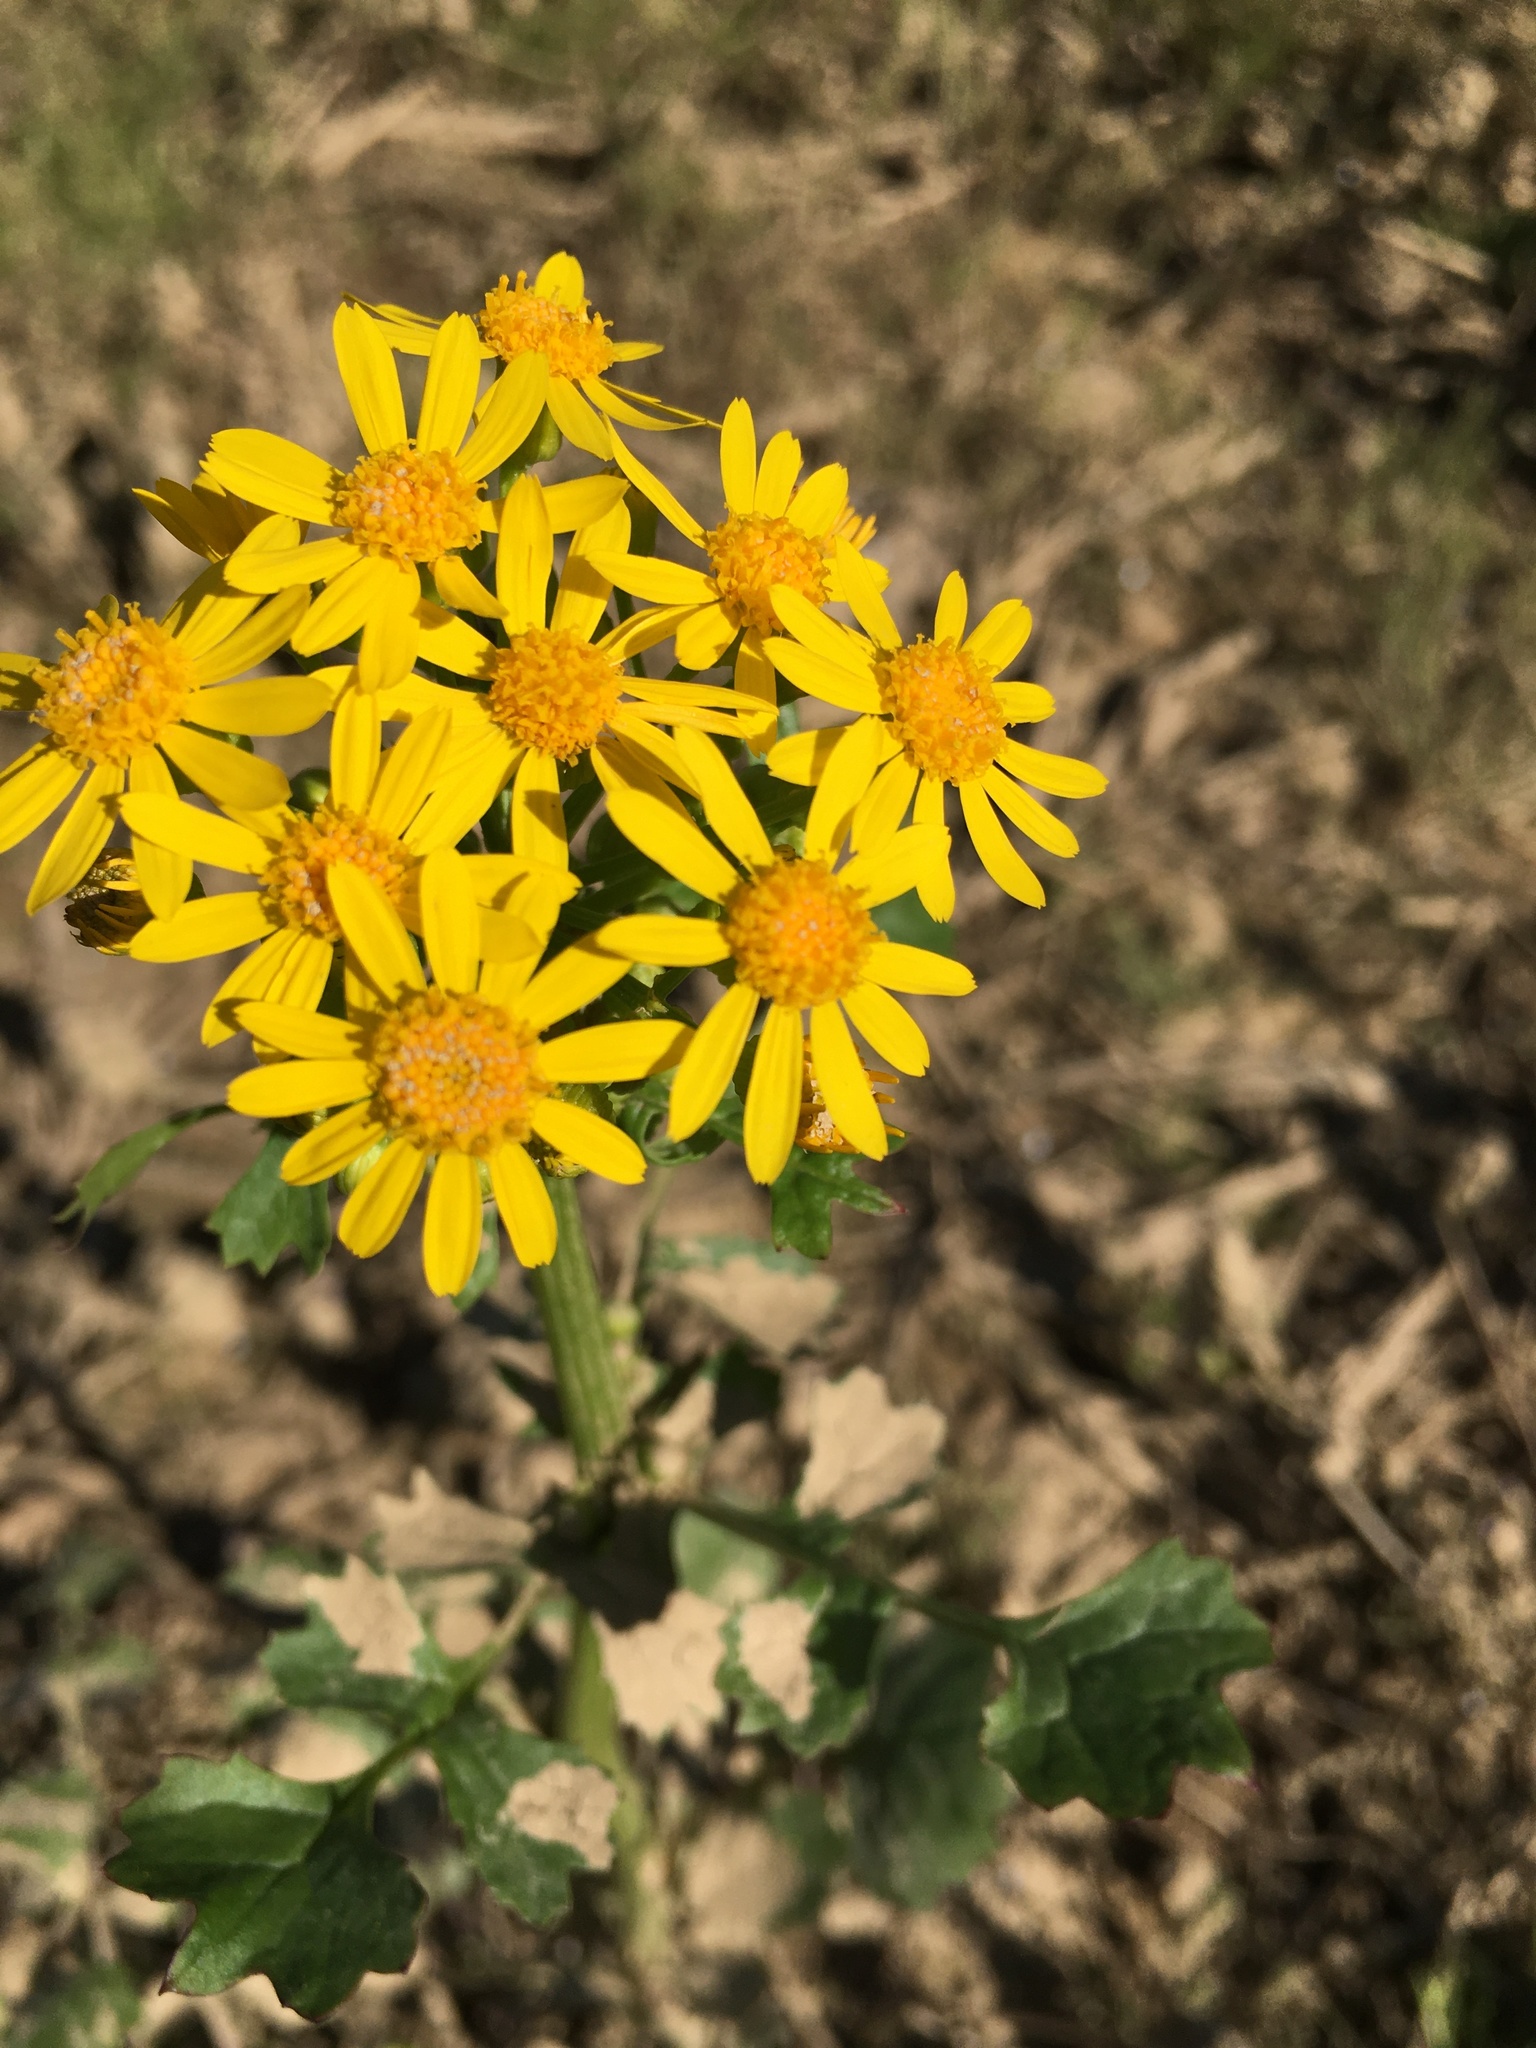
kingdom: Plantae
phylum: Tracheophyta
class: Magnoliopsida
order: Asterales
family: Asteraceae
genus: Packera
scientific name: Packera glabella
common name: Butterweed
